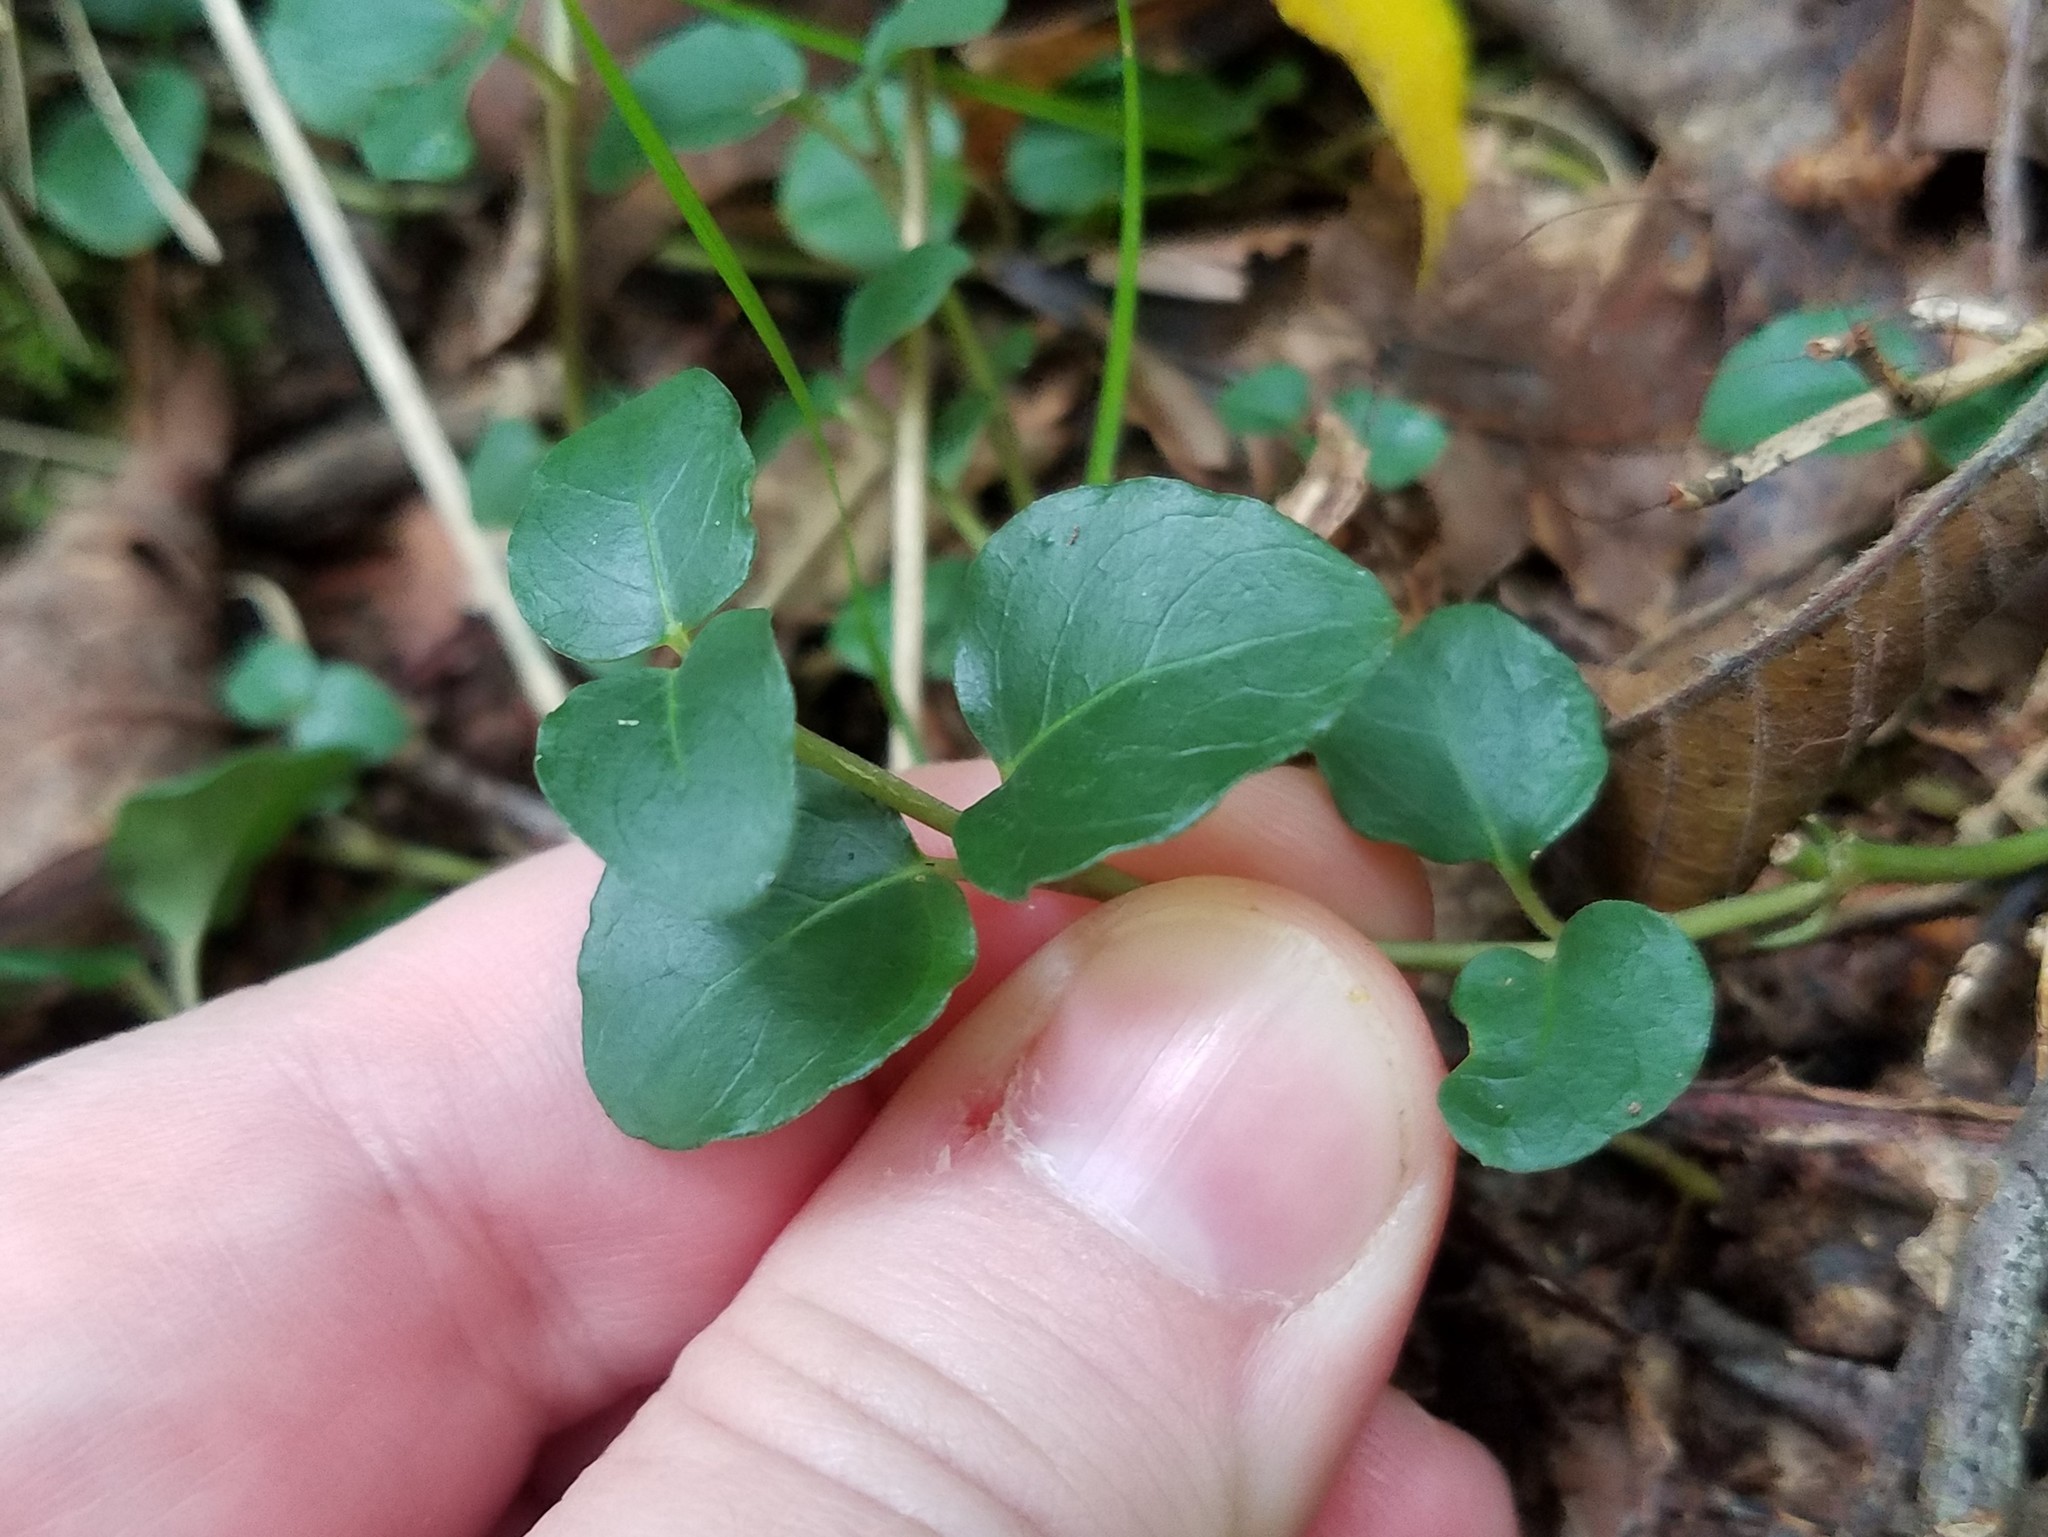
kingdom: Plantae
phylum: Tracheophyta
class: Magnoliopsida
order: Gentianales
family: Rubiaceae
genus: Mitchella
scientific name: Mitchella repens
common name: Partridge-berry
